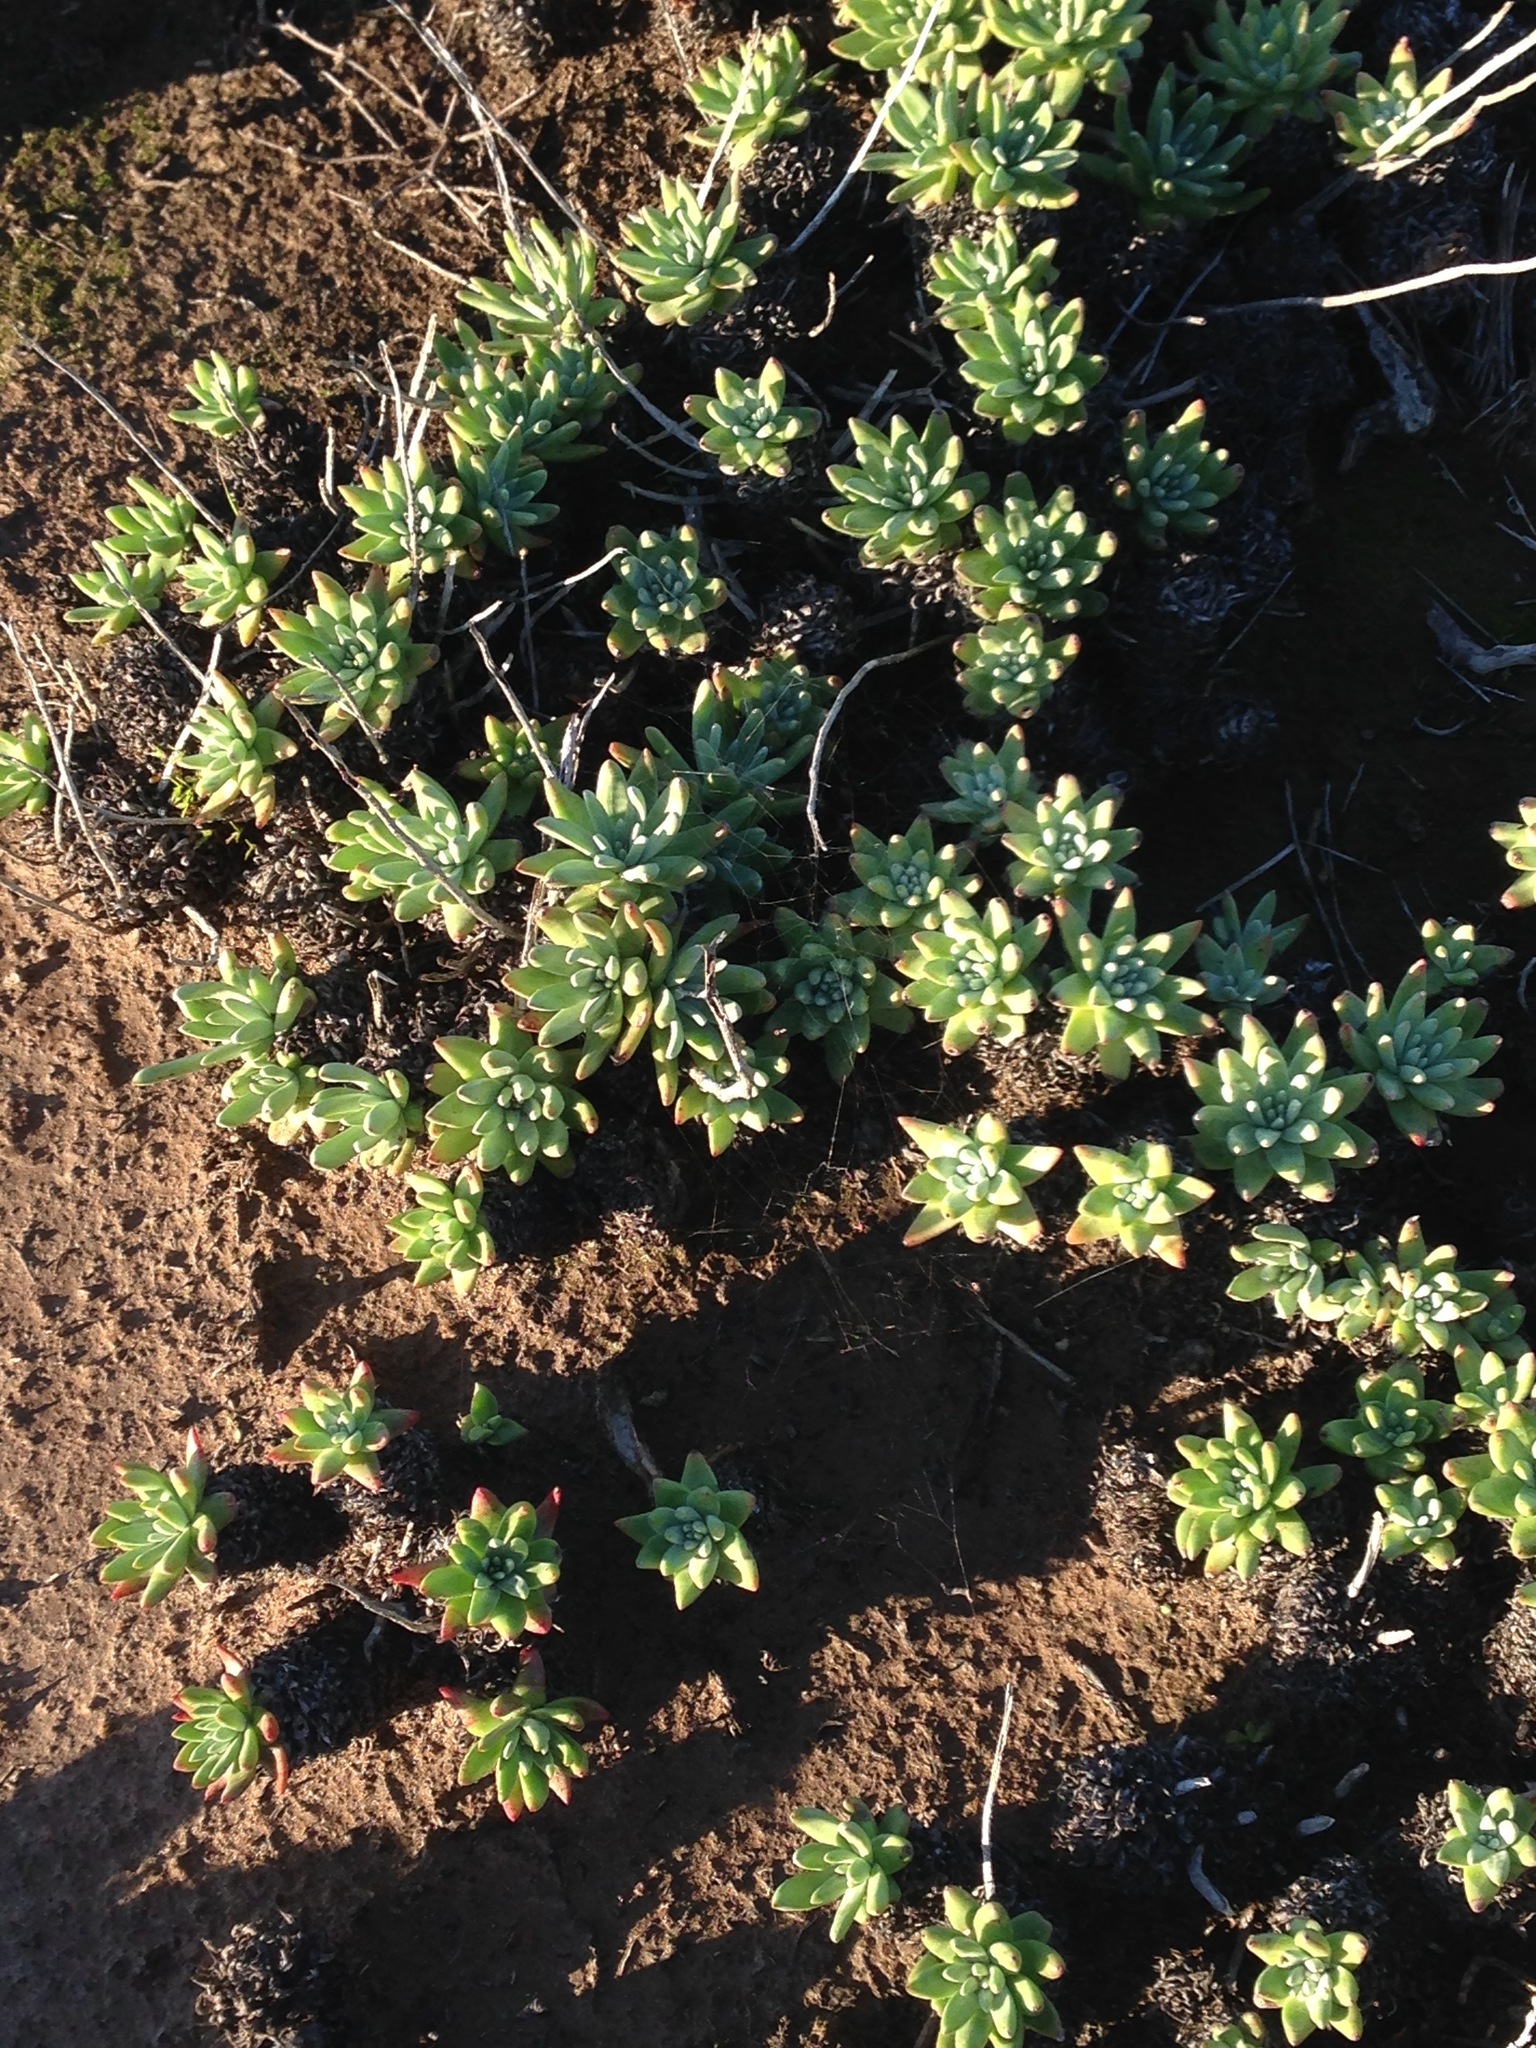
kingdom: Plantae
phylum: Tracheophyta
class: Magnoliopsida
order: Saxifragales
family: Crassulaceae
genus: Dudleya
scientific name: Dudleya virens
